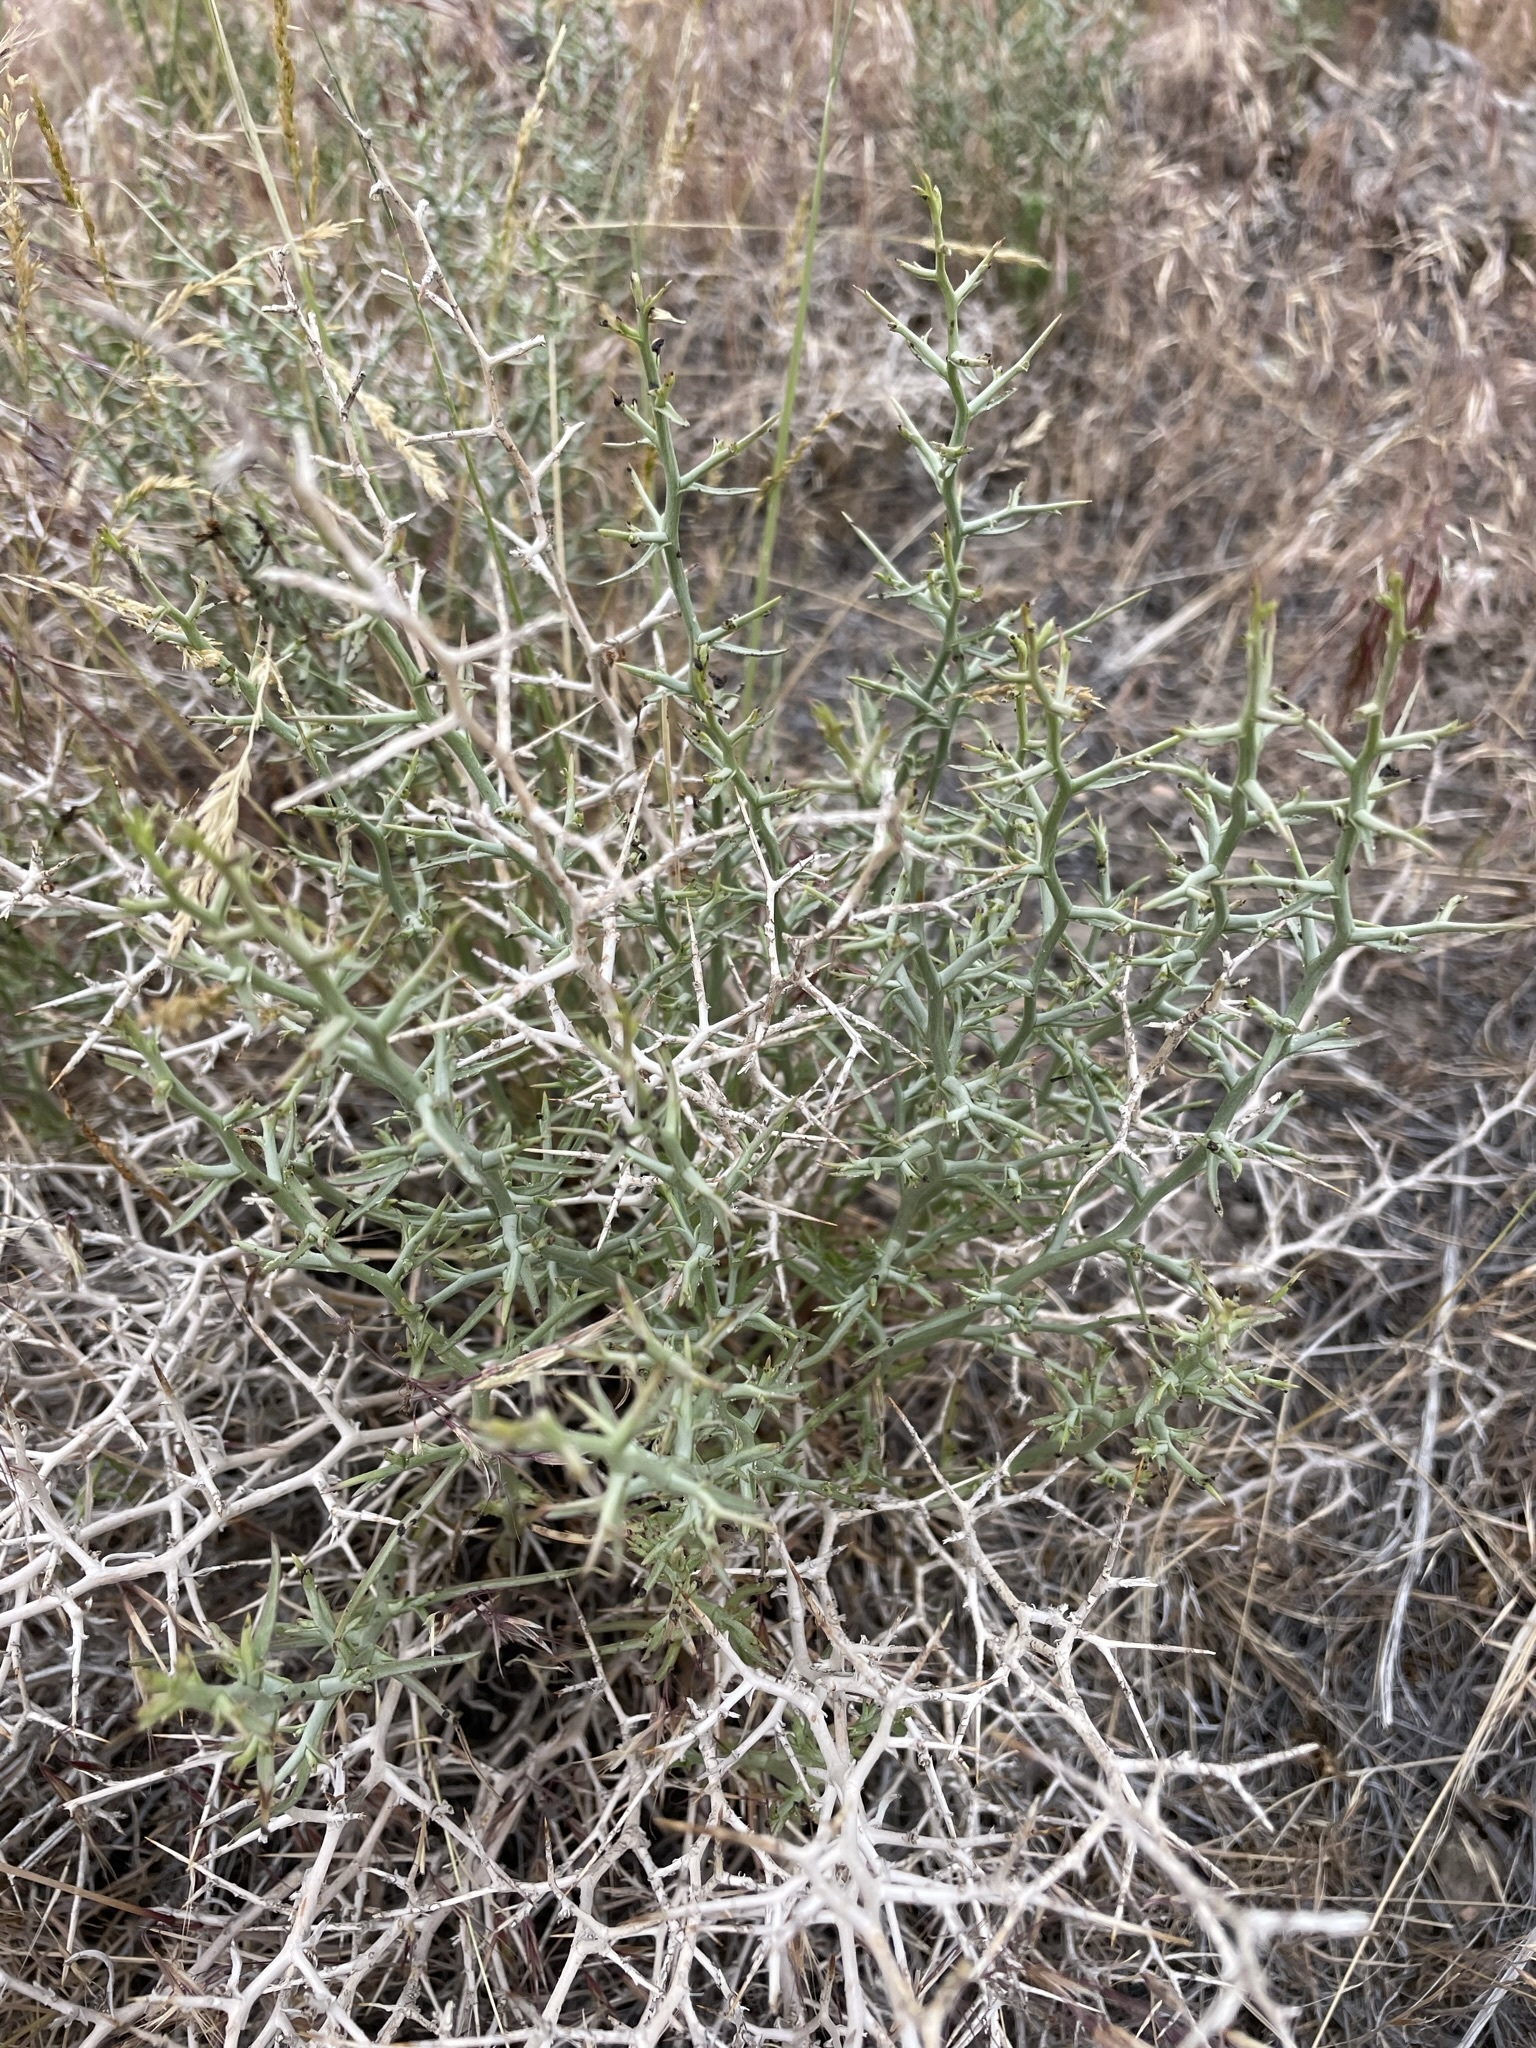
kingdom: Plantae
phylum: Tracheophyta
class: Magnoliopsida
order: Asterales
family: Asteraceae
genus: Pleiacanthus
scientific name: Pleiacanthus spinosus
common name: Thorny skeleton-weed
